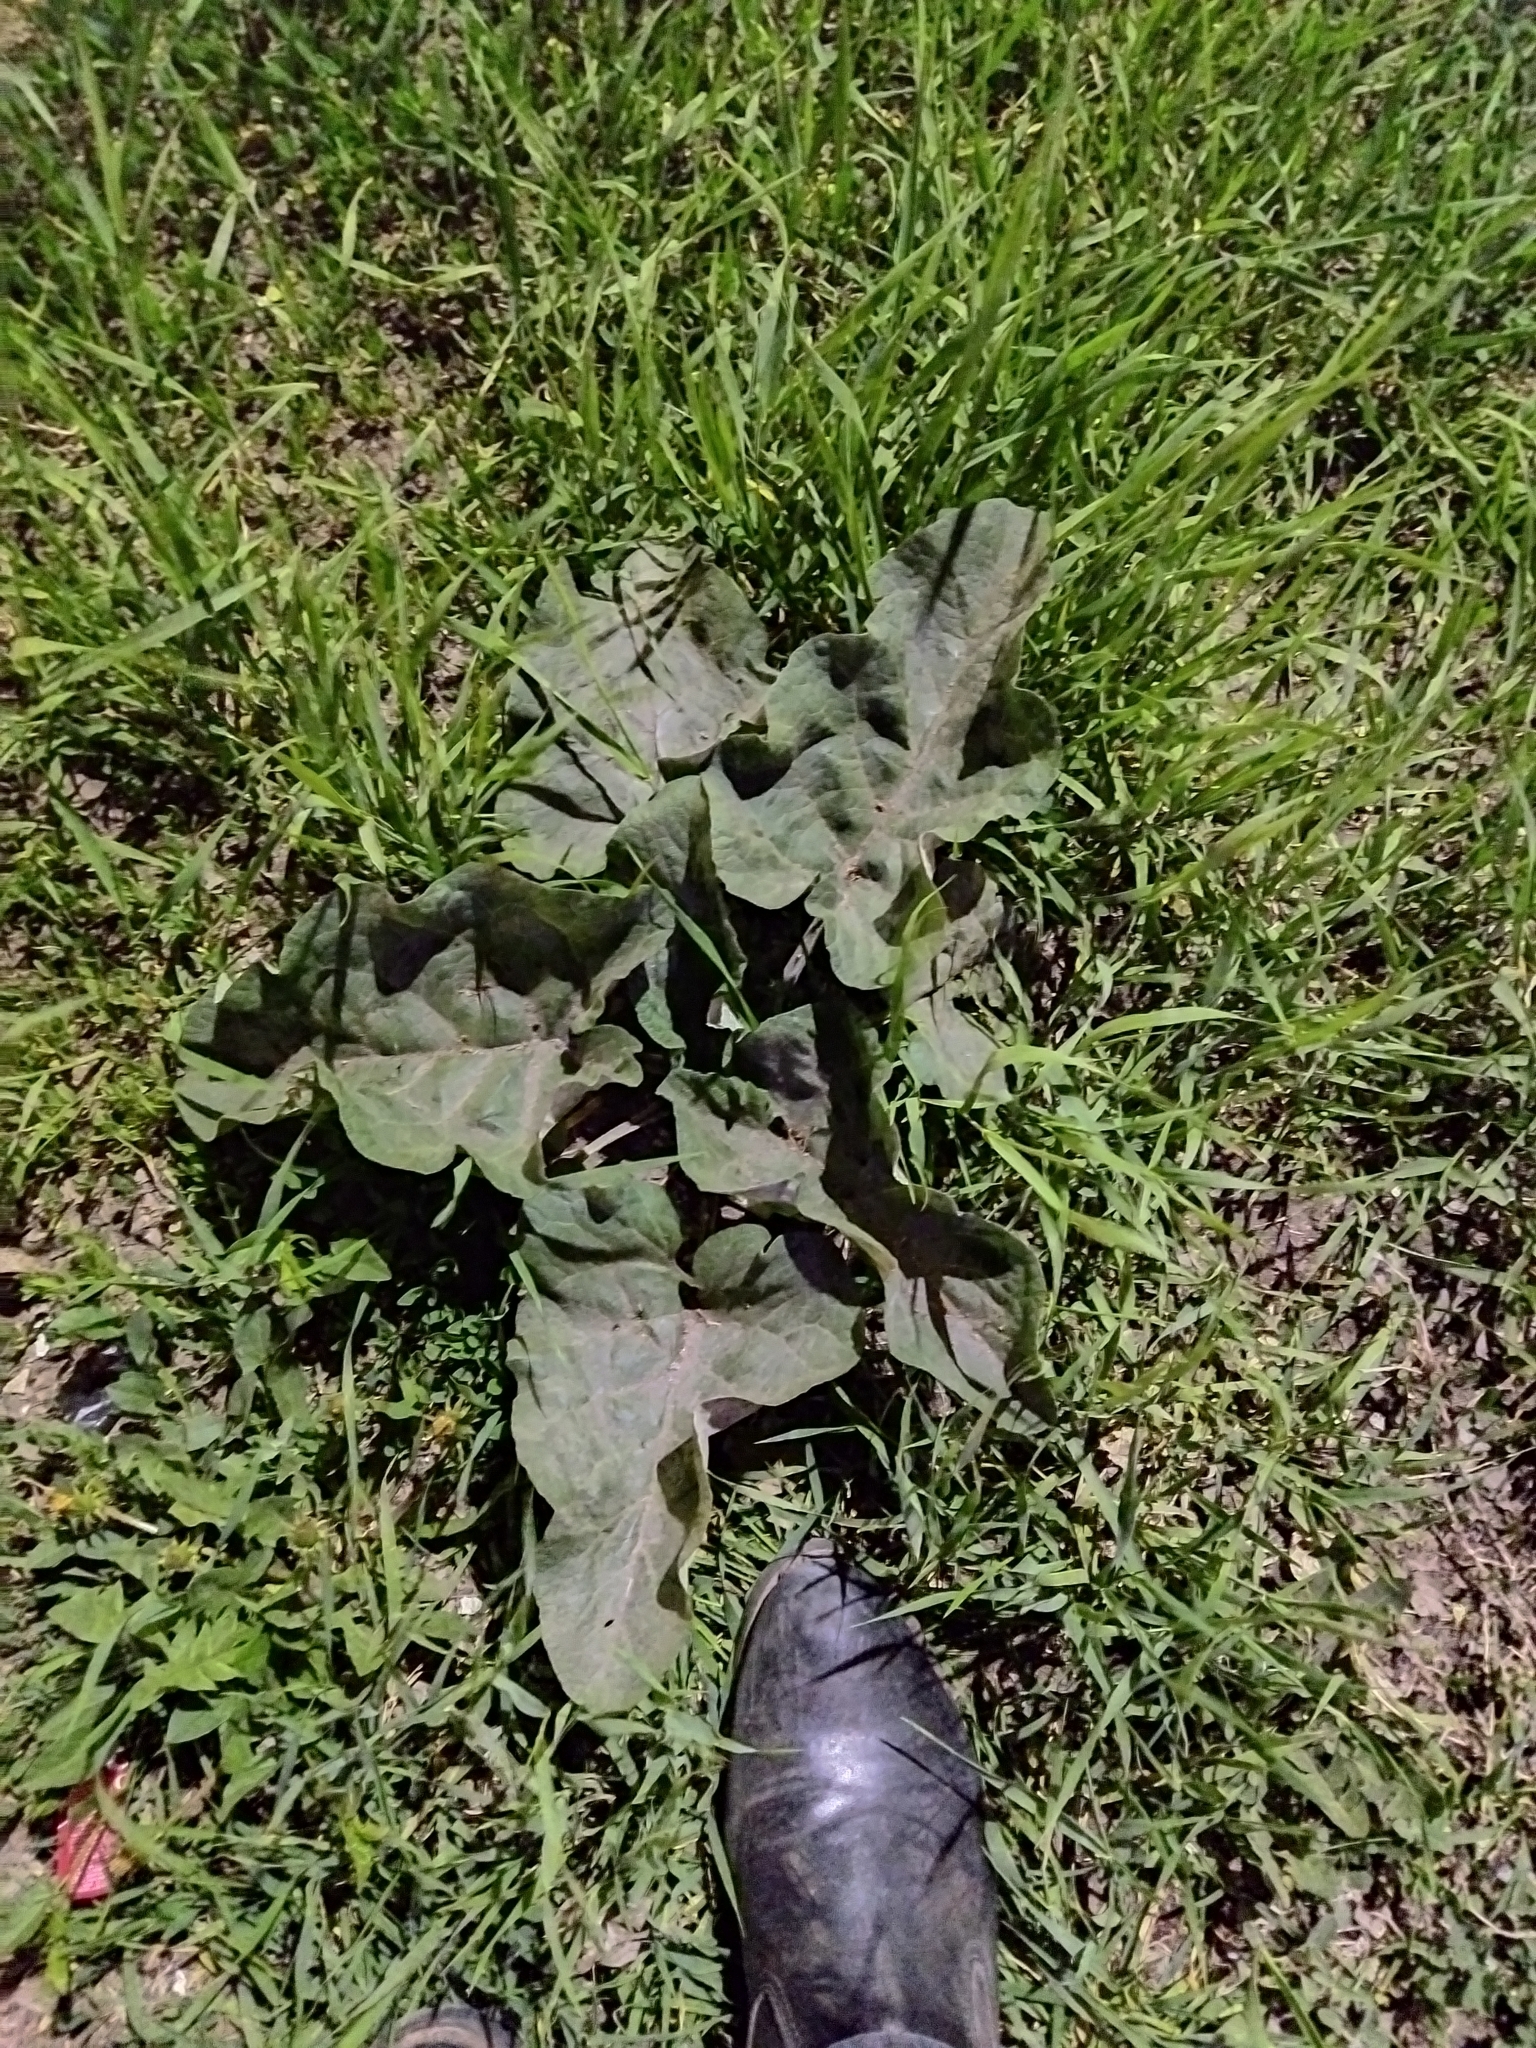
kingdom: Plantae
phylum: Tracheophyta
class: Magnoliopsida
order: Asterales
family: Asteraceae
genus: Arctium
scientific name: Arctium tomentosum
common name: Woolly burdock
